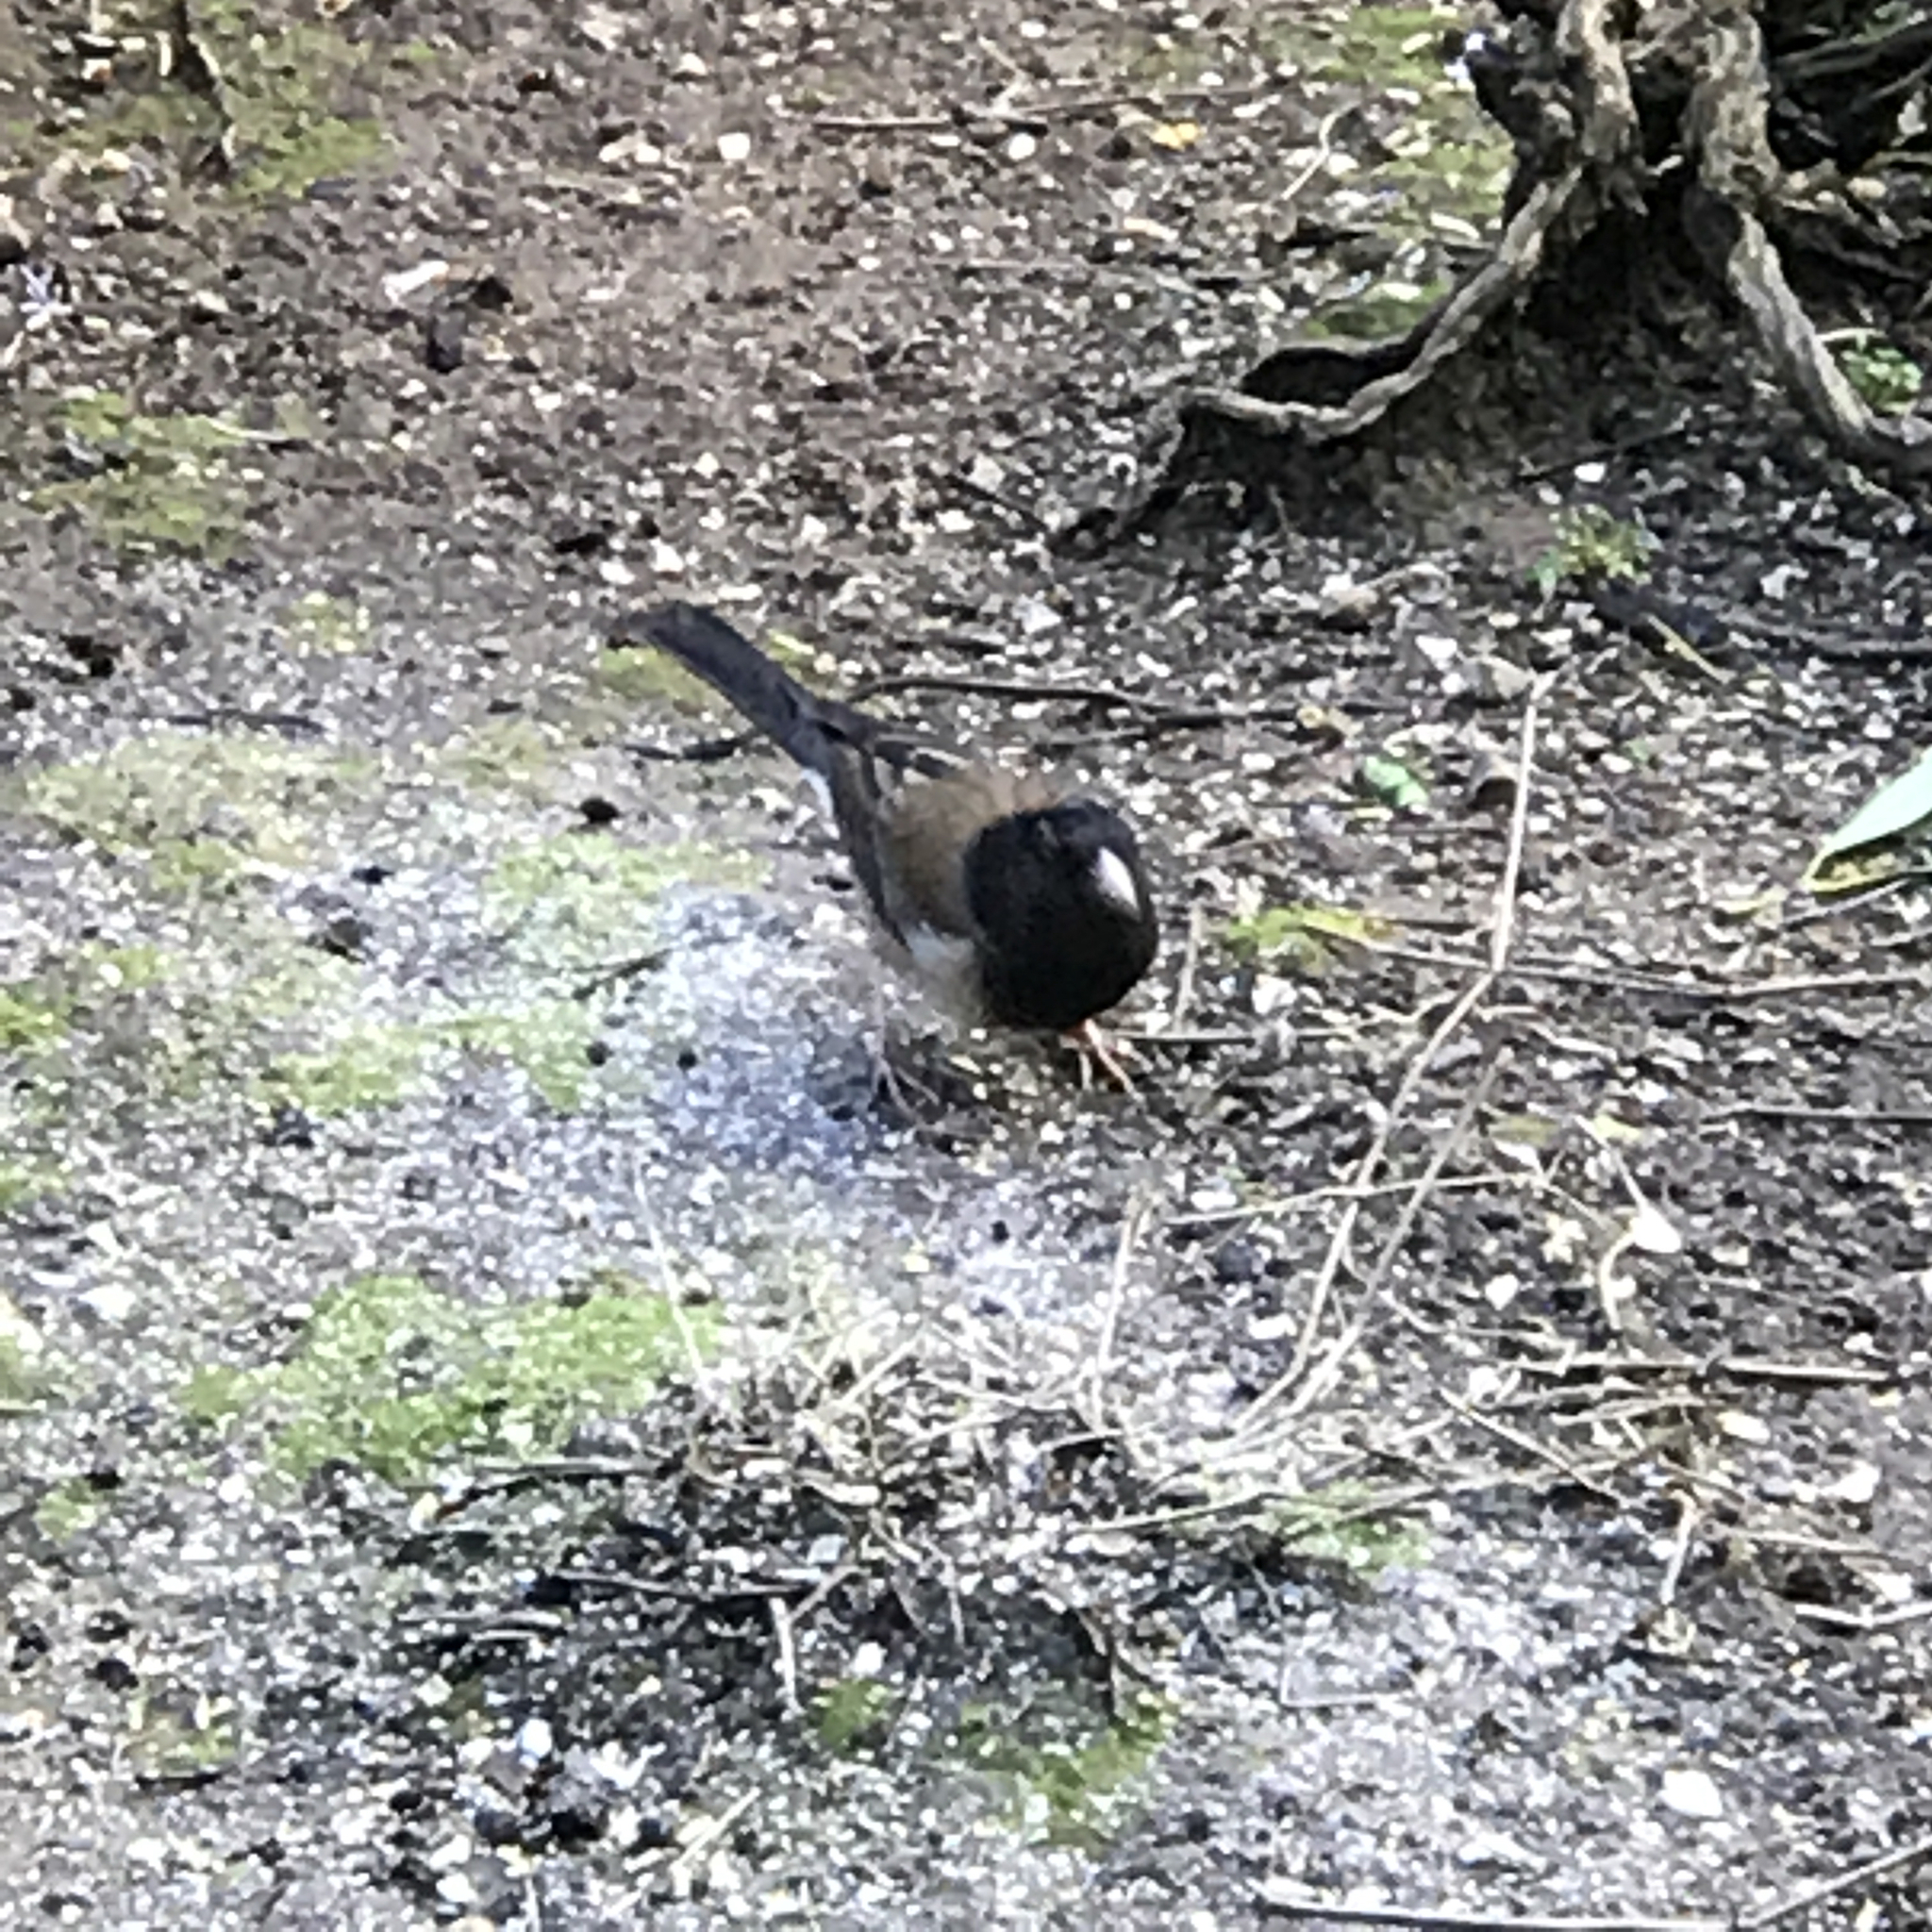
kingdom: Animalia
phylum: Chordata
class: Aves
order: Passeriformes
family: Passerellidae
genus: Junco
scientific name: Junco hyemalis
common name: Dark-eyed junco
